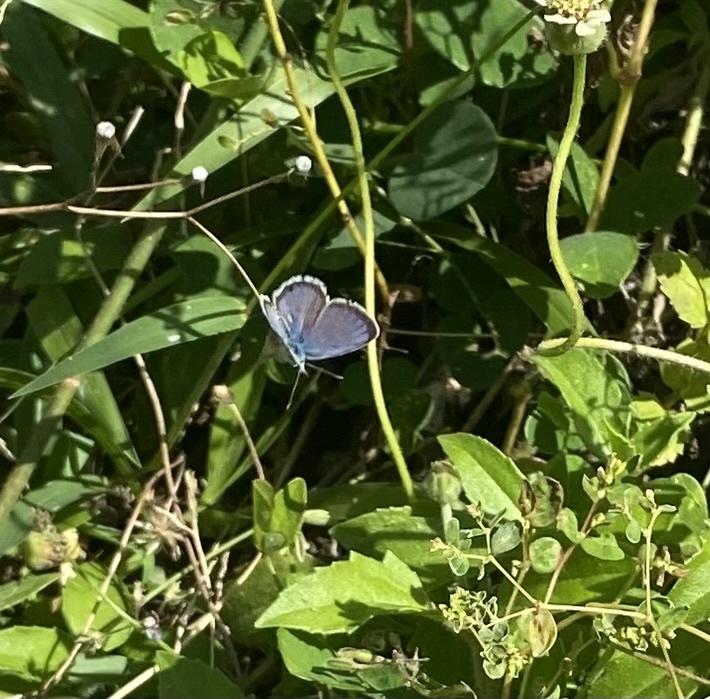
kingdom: Animalia
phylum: Arthropoda
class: Insecta
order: Lepidoptera
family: Lycaenidae
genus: Hemiargus
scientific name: Hemiargus hanno
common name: Common blue
